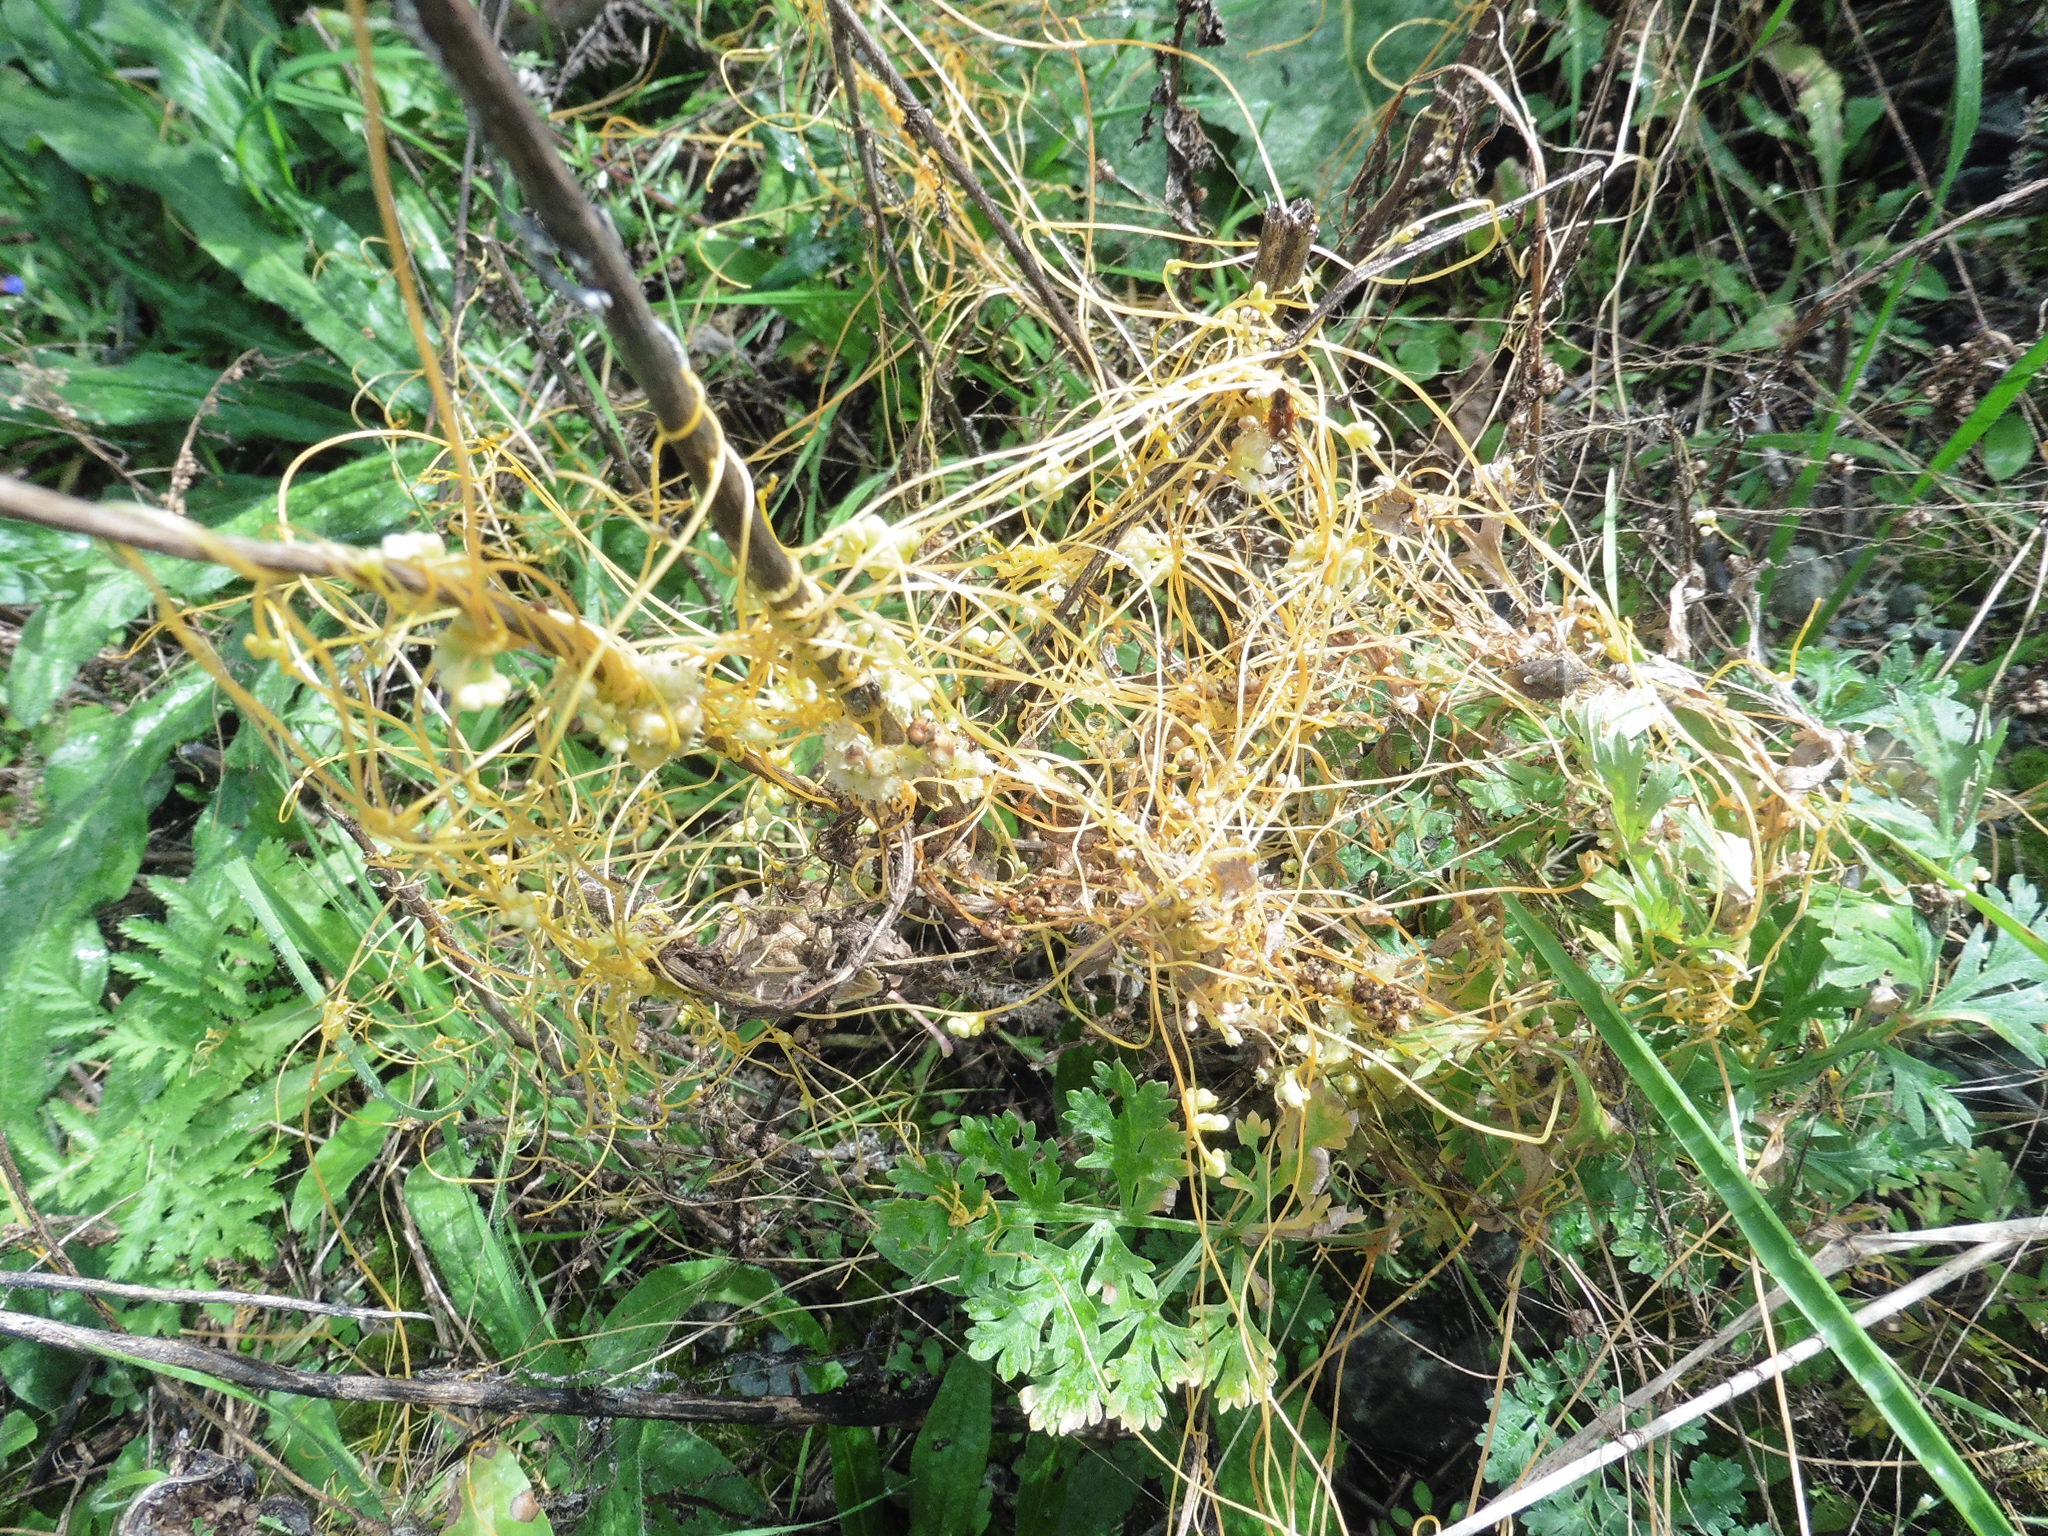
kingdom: Plantae
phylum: Tracheophyta
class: Magnoliopsida
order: Solanales
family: Convolvulaceae
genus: Cuscuta
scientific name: Cuscuta campestris
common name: Yellow dodder
